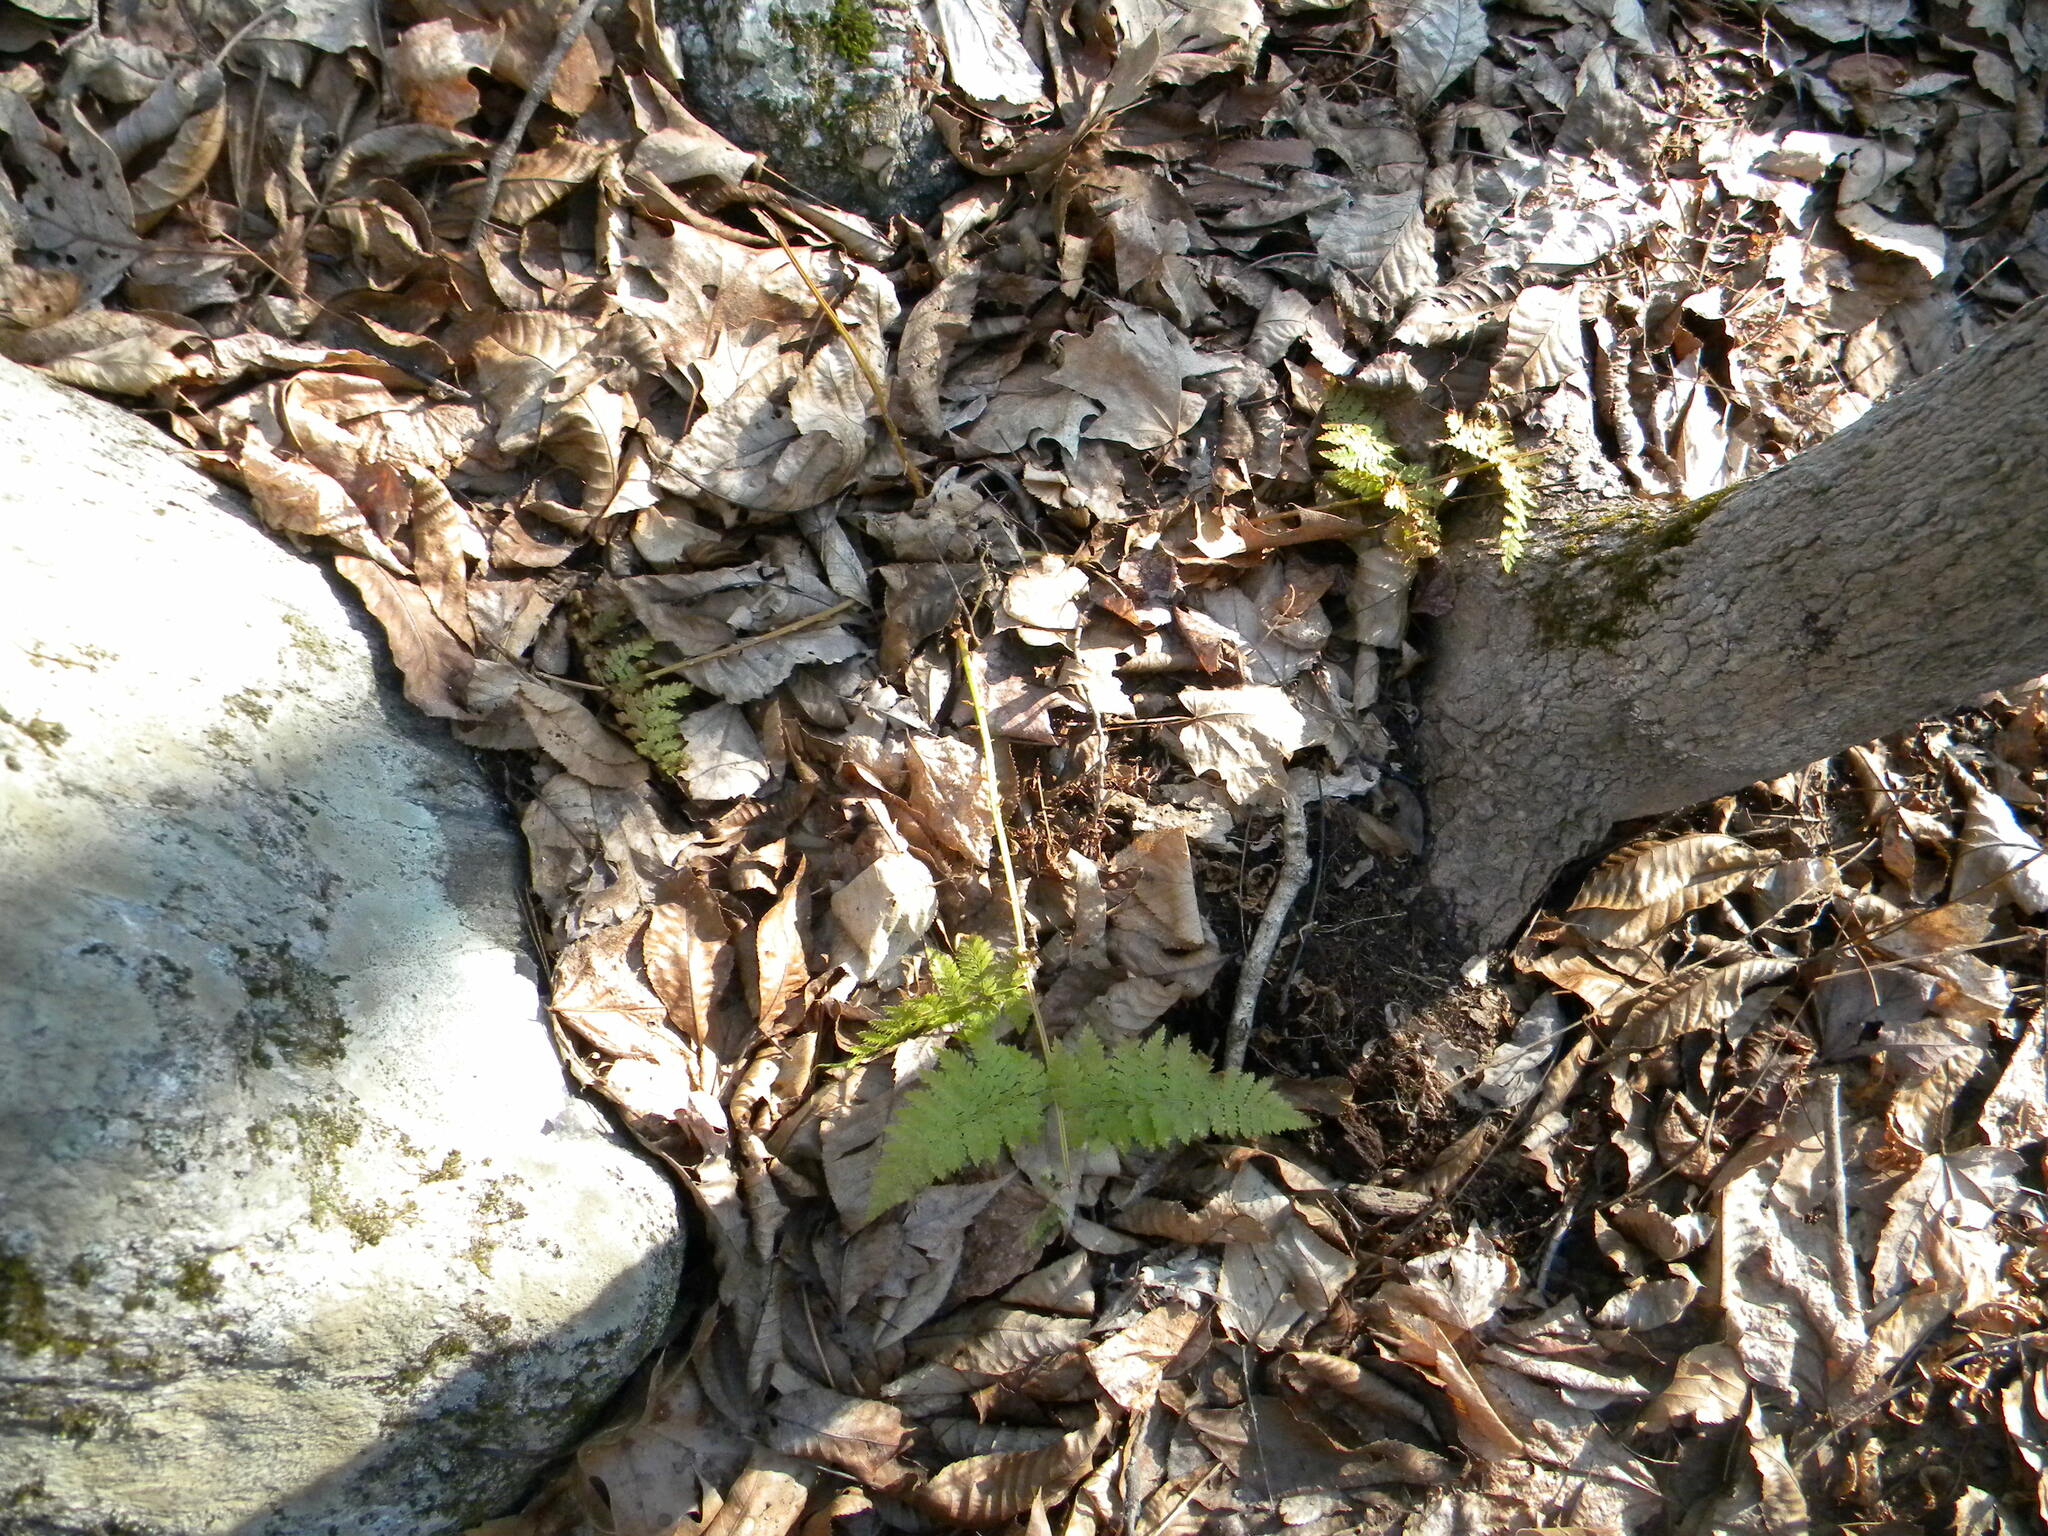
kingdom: Plantae
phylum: Tracheophyta
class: Polypodiopsida
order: Polypodiales
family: Dryopteridaceae
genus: Dryopteris
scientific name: Dryopteris intermedia
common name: Evergreen wood fern
